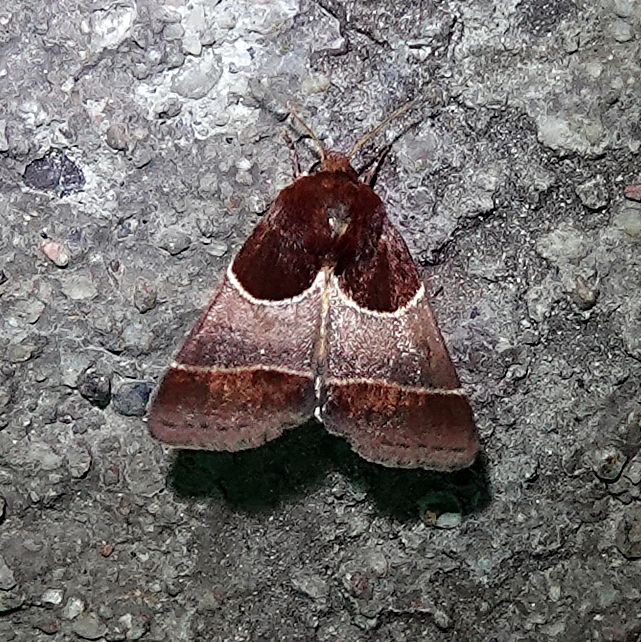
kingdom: Animalia
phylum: Arthropoda
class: Insecta
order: Lepidoptera
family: Noctuidae
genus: Schinia
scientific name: Schinia arcigera
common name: Arcigera flower moth
